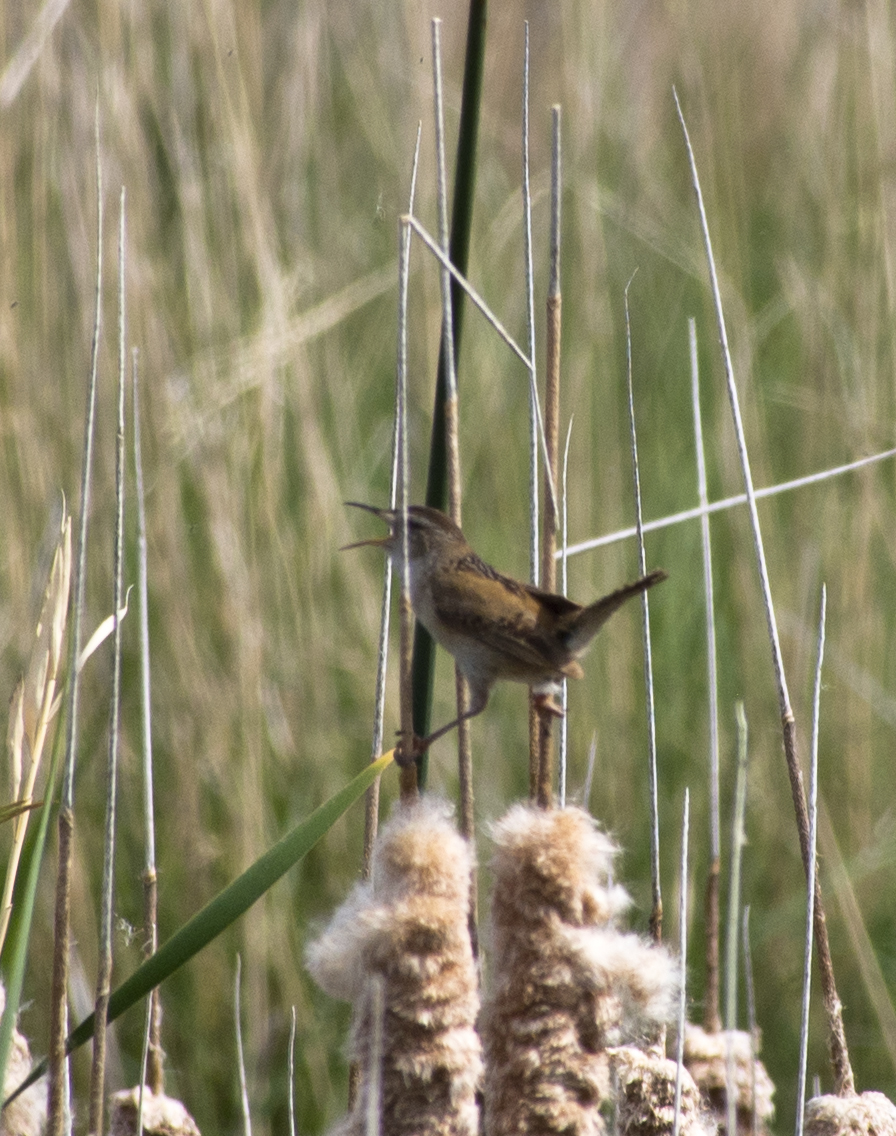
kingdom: Animalia
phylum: Chordata
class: Aves
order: Passeriformes
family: Troglodytidae
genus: Cistothorus
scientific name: Cistothorus palustris
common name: Marsh wren
